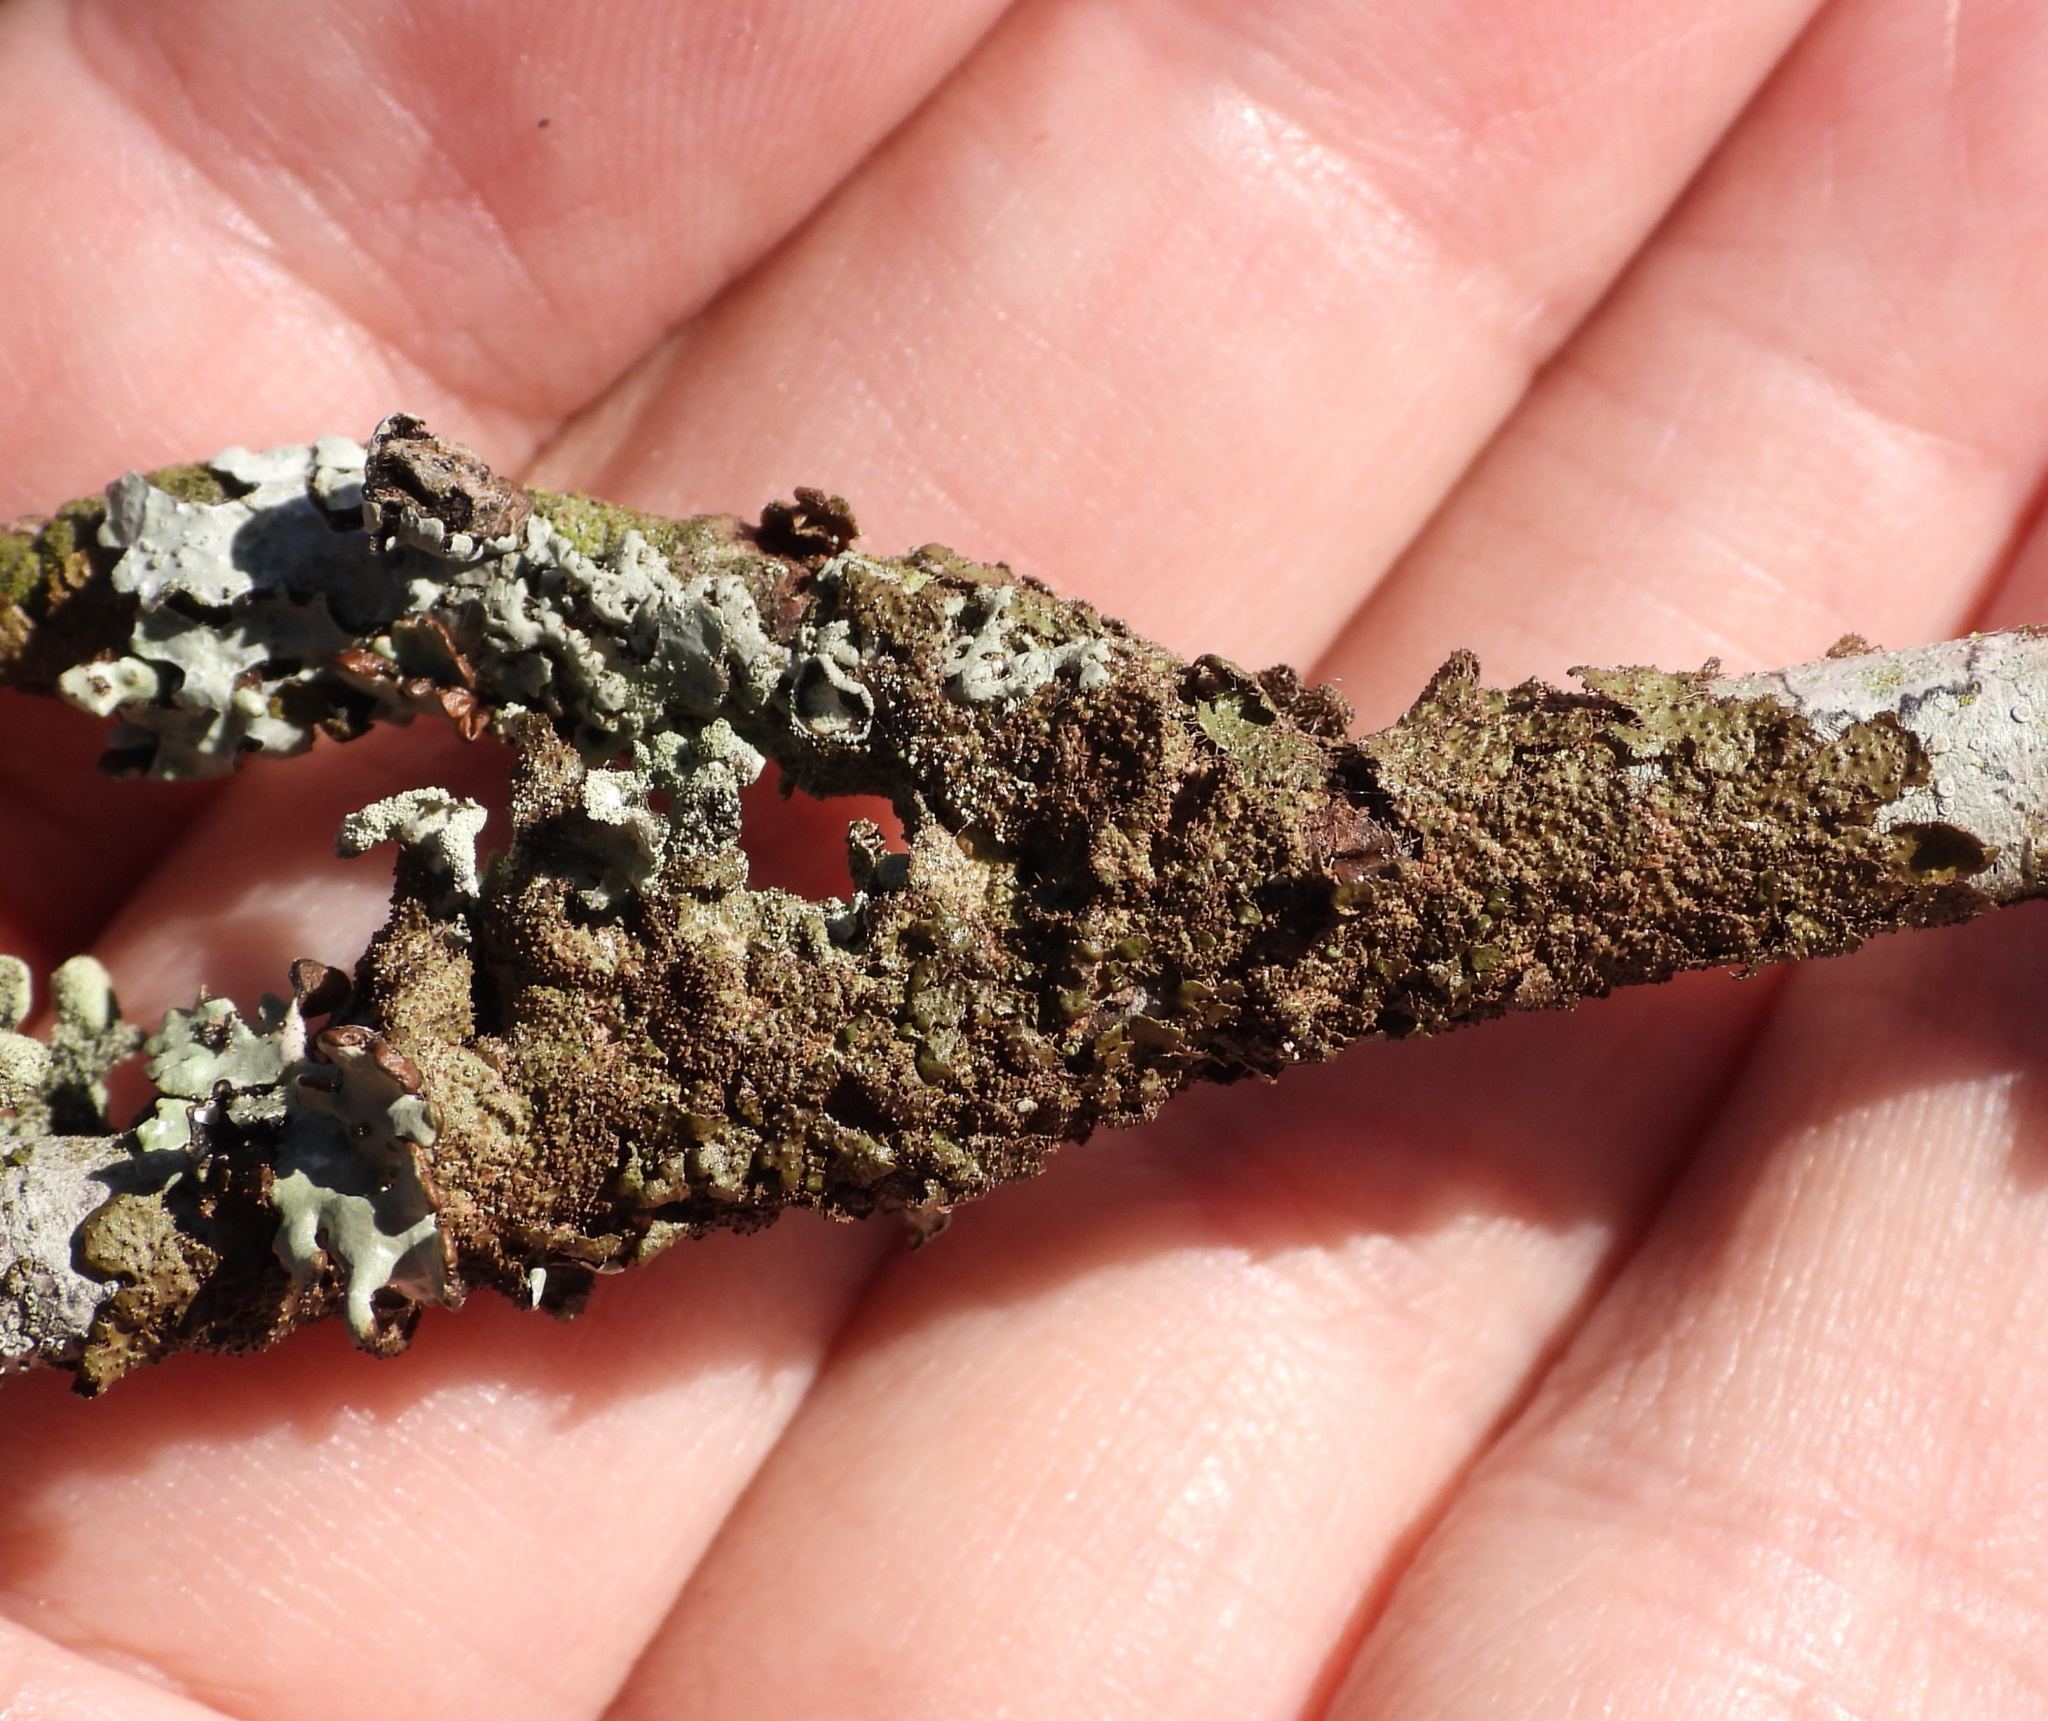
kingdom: Fungi
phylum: Ascomycota
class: Lecanoromycetes
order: Lecanorales
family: Parmeliaceae
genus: Melanohalea
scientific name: Melanohalea exasperata
